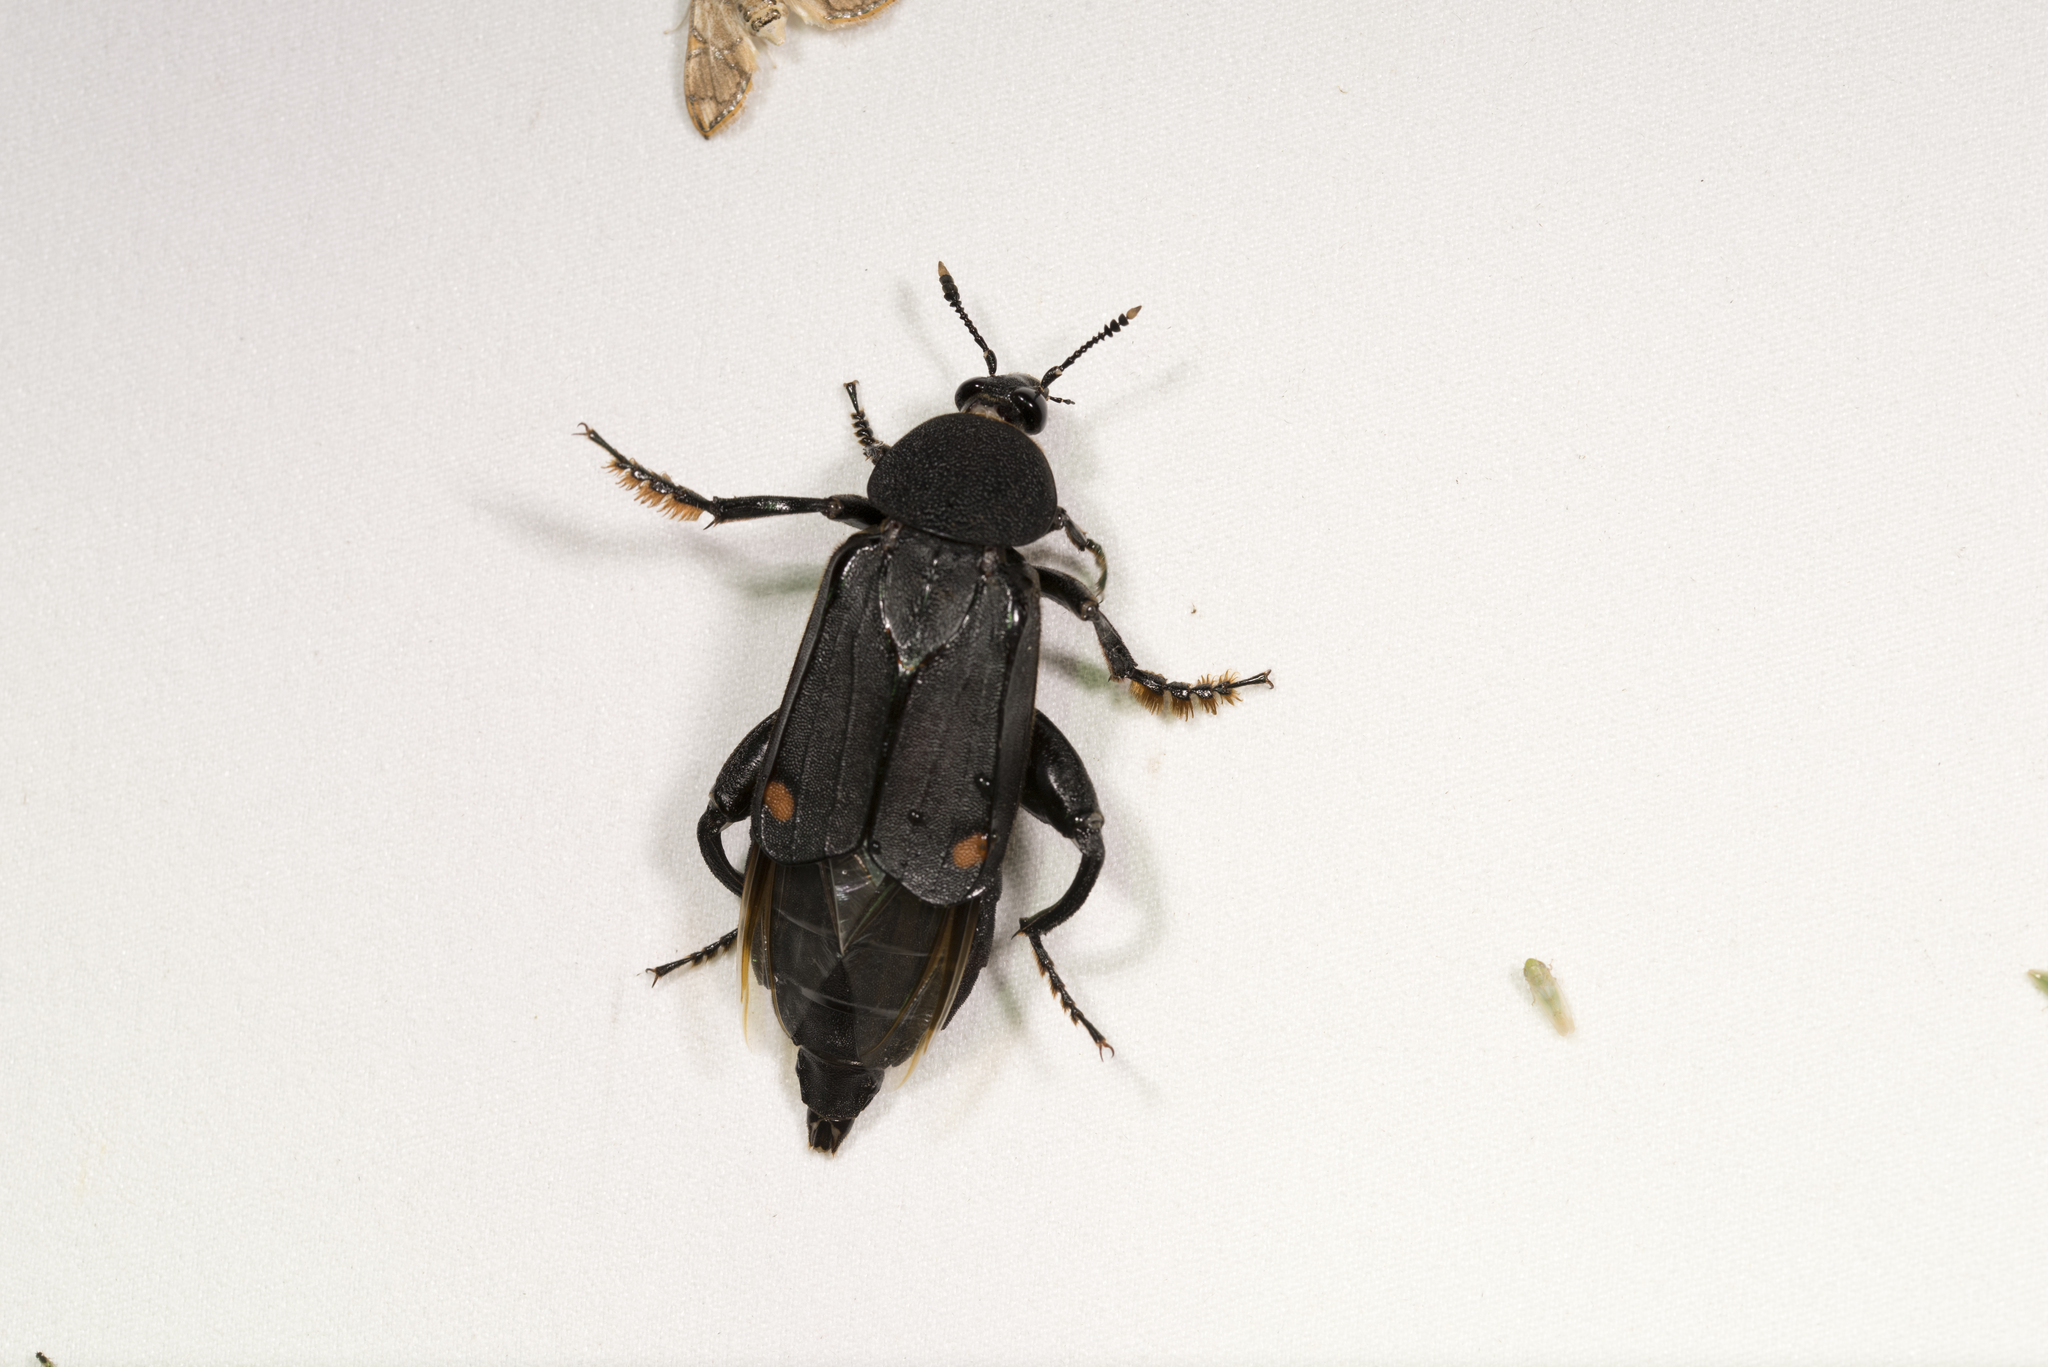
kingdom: Animalia
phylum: Arthropoda
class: Insecta
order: Coleoptera
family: Staphylinidae
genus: Diamesus
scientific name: Diamesus bimaculatus
